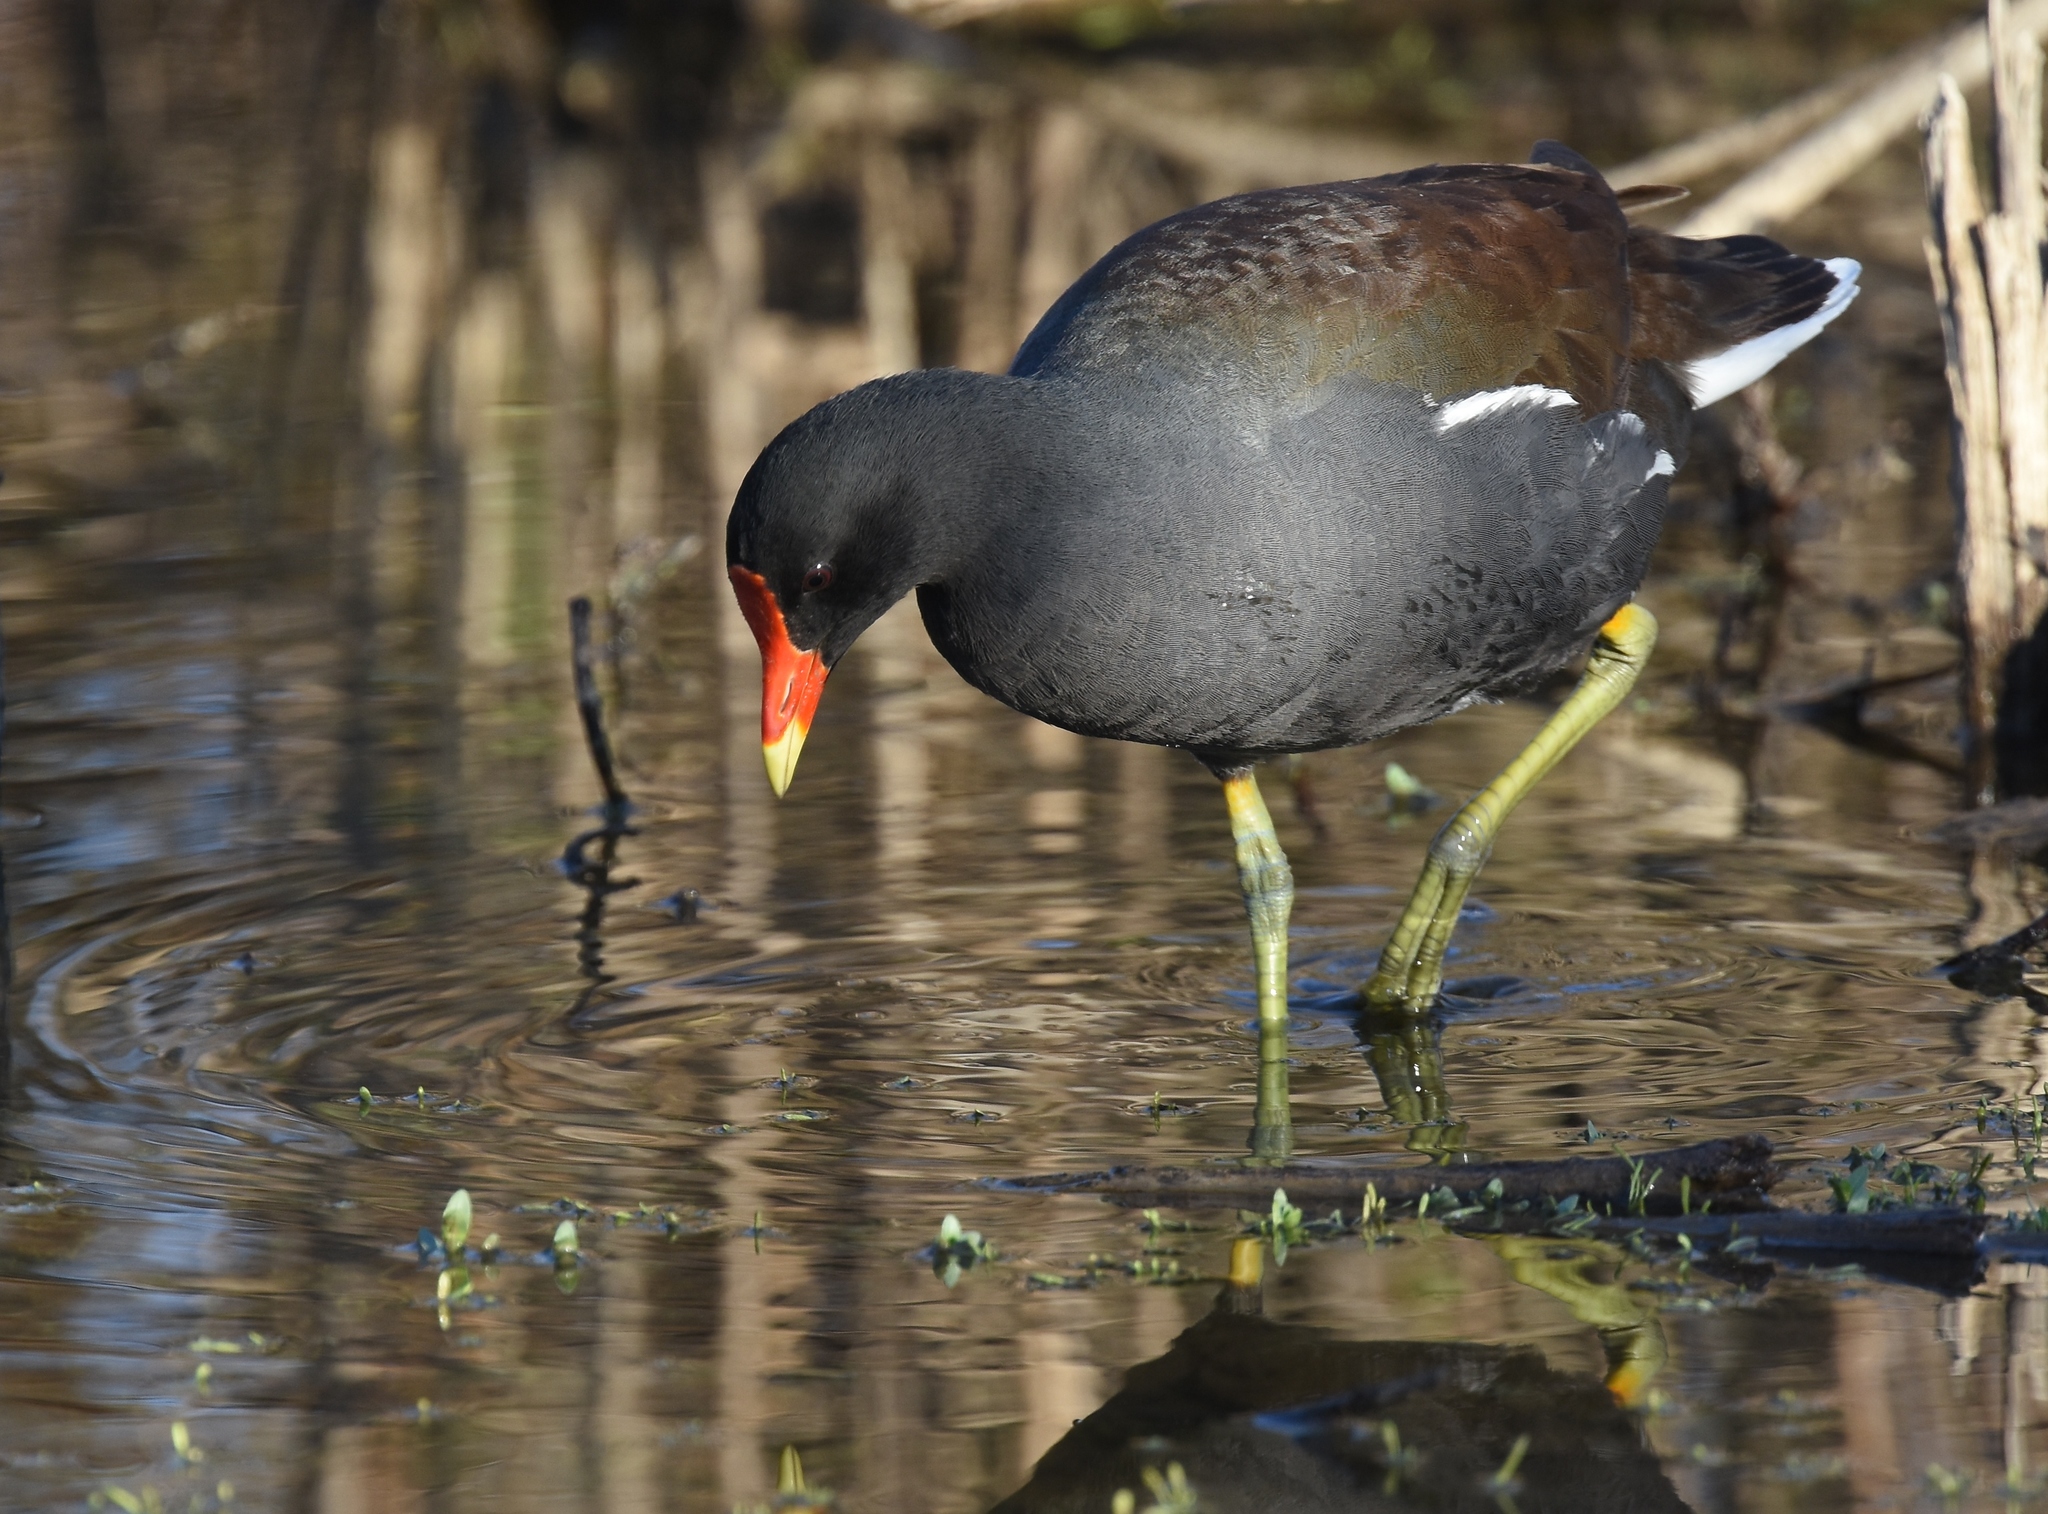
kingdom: Animalia
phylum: Chordata
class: Aves
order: Gruiformes
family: Rallidae
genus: Gallinula
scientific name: Gallinula chloropus
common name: Common moorhen
